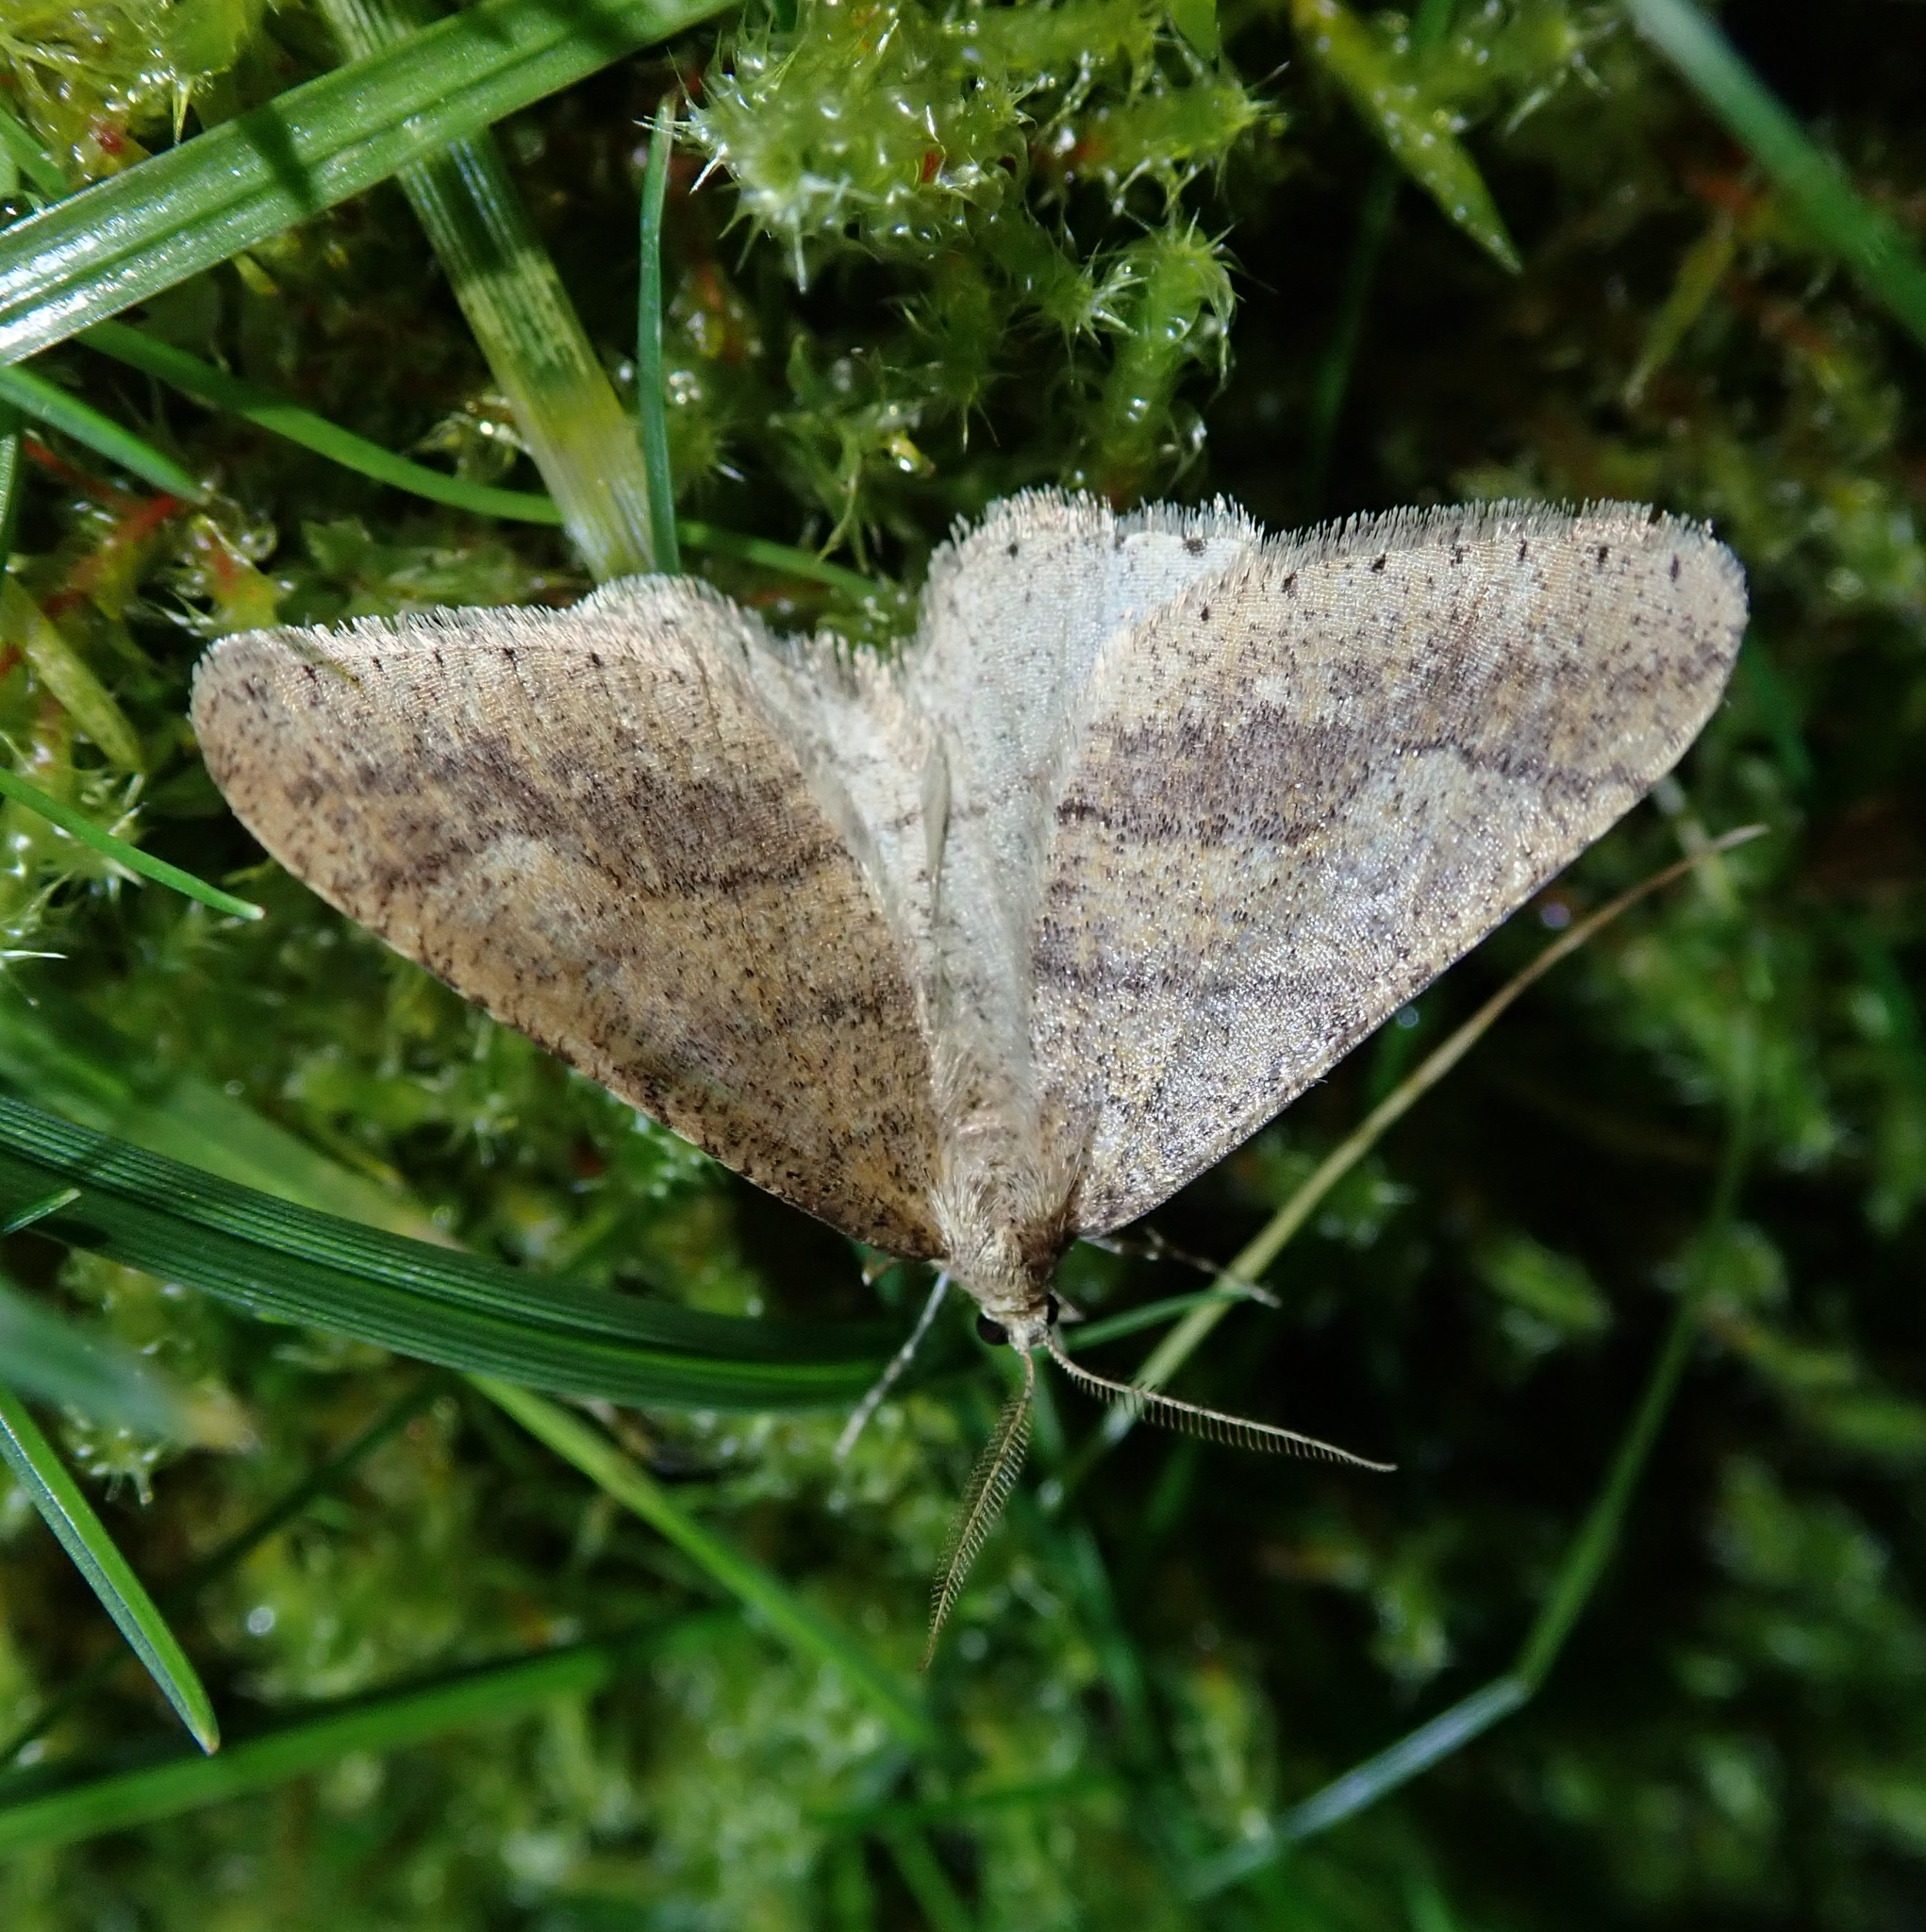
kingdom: Animalia
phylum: Arthropoda
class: Insecta
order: Lepidoptera
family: Geometridae
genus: Agriopis
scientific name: Agriopis marginaria
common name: Dotted border
